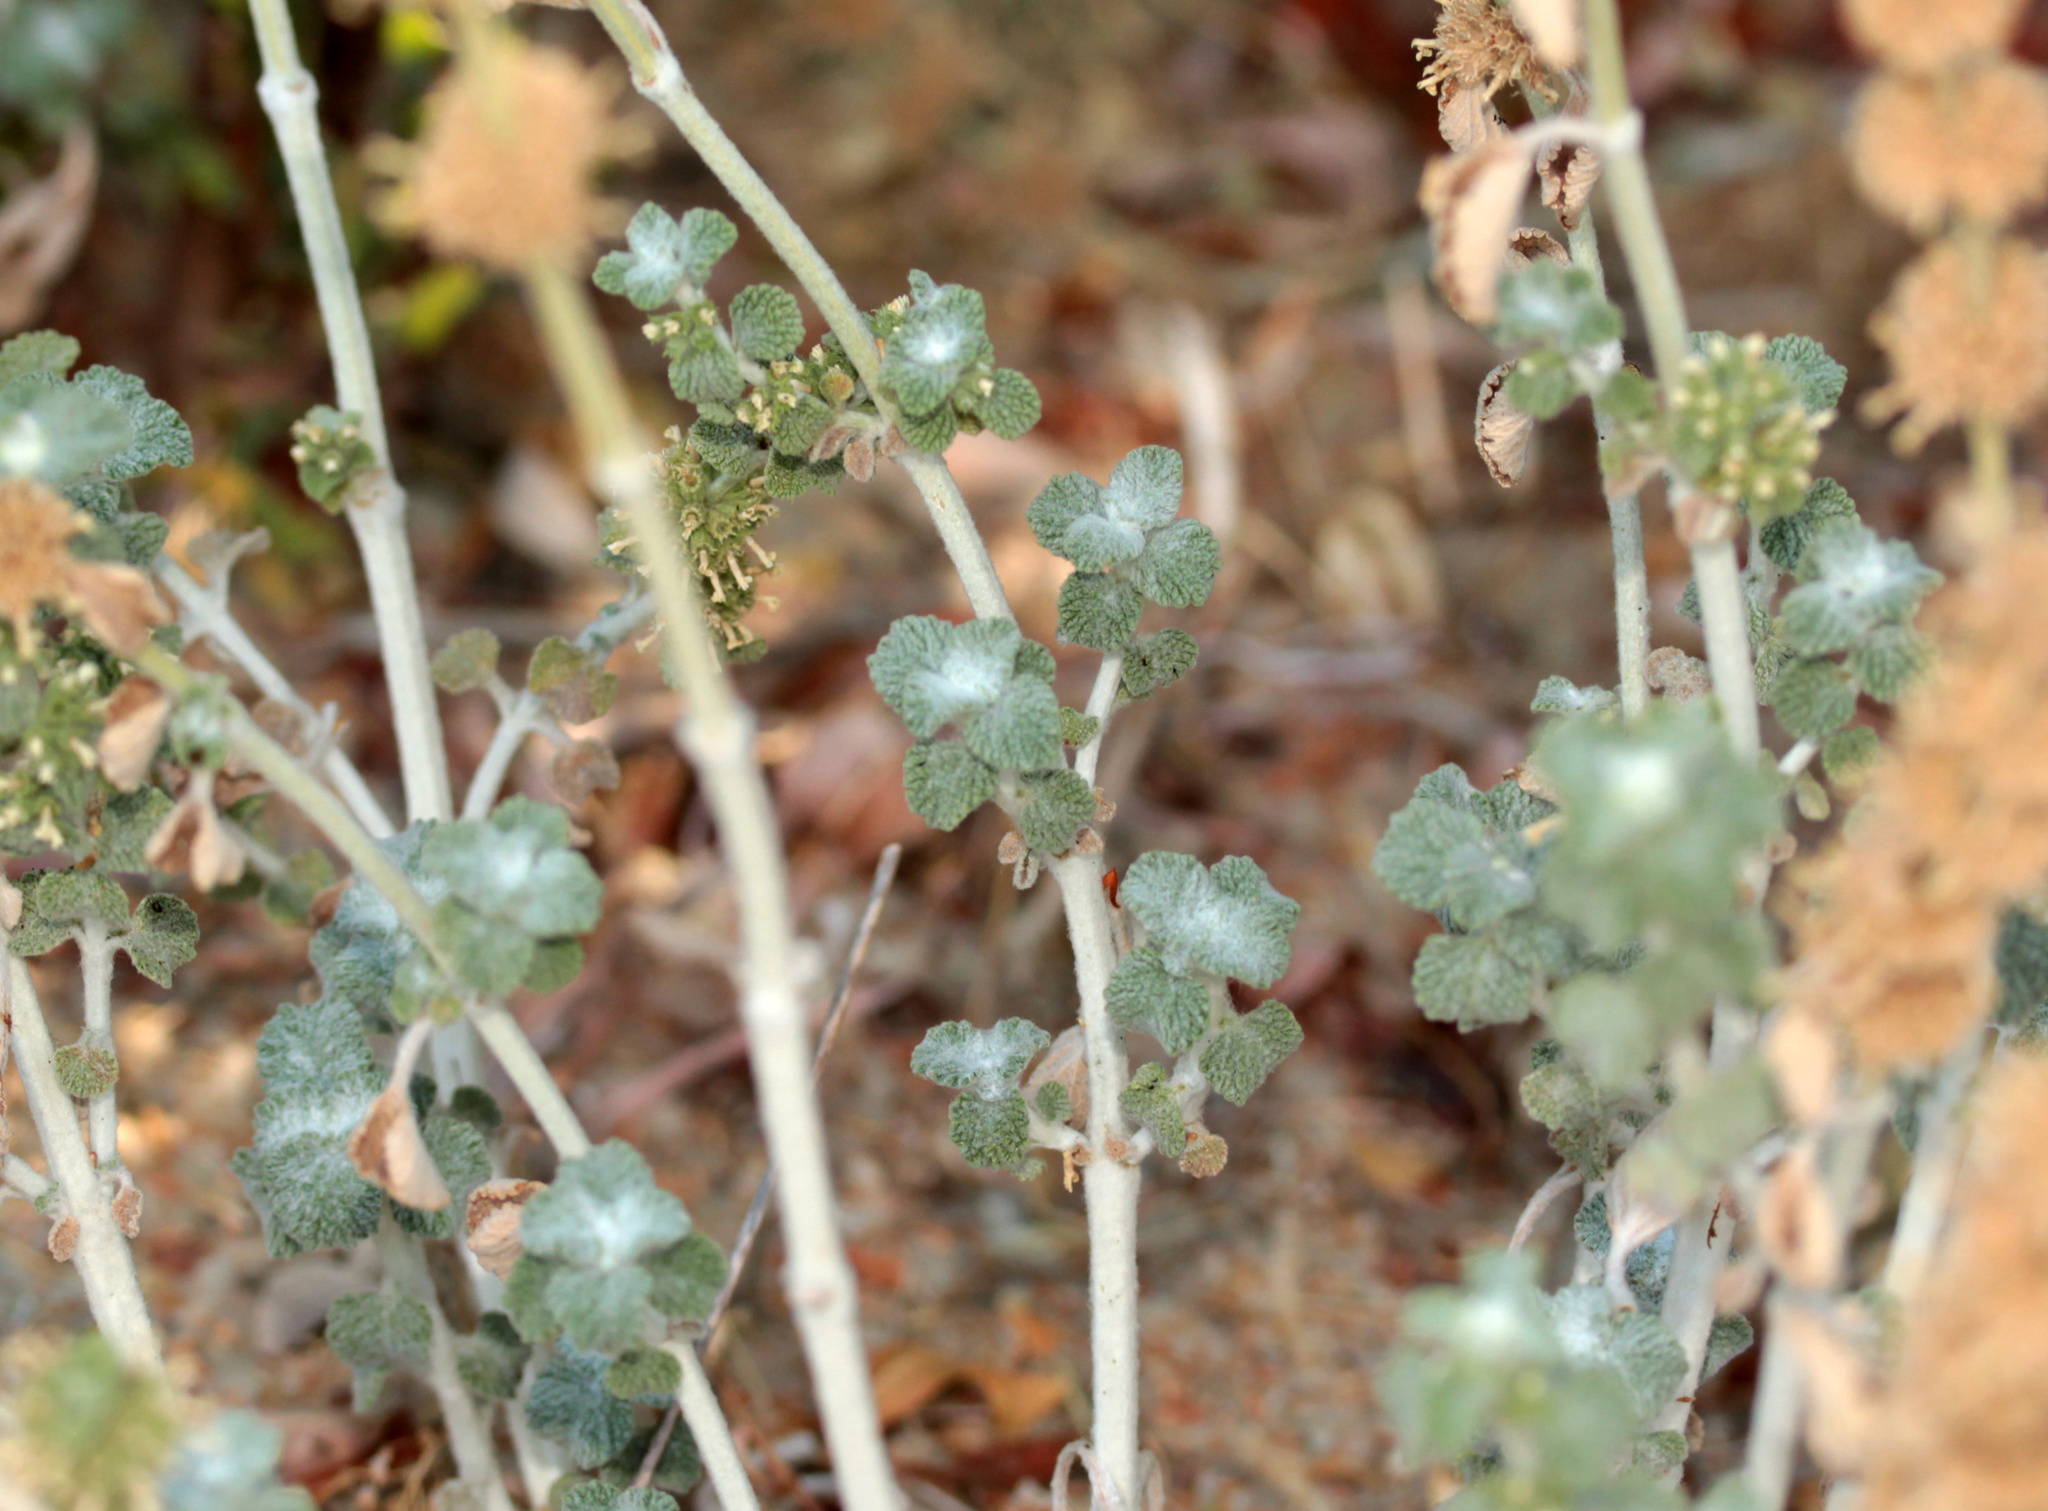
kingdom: Plantae
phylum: Tracheophyta
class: Magnoliopsida
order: Lamiales
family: Lamiaceae
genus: Marrubium
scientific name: Marrubium vulgare
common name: Horehound
